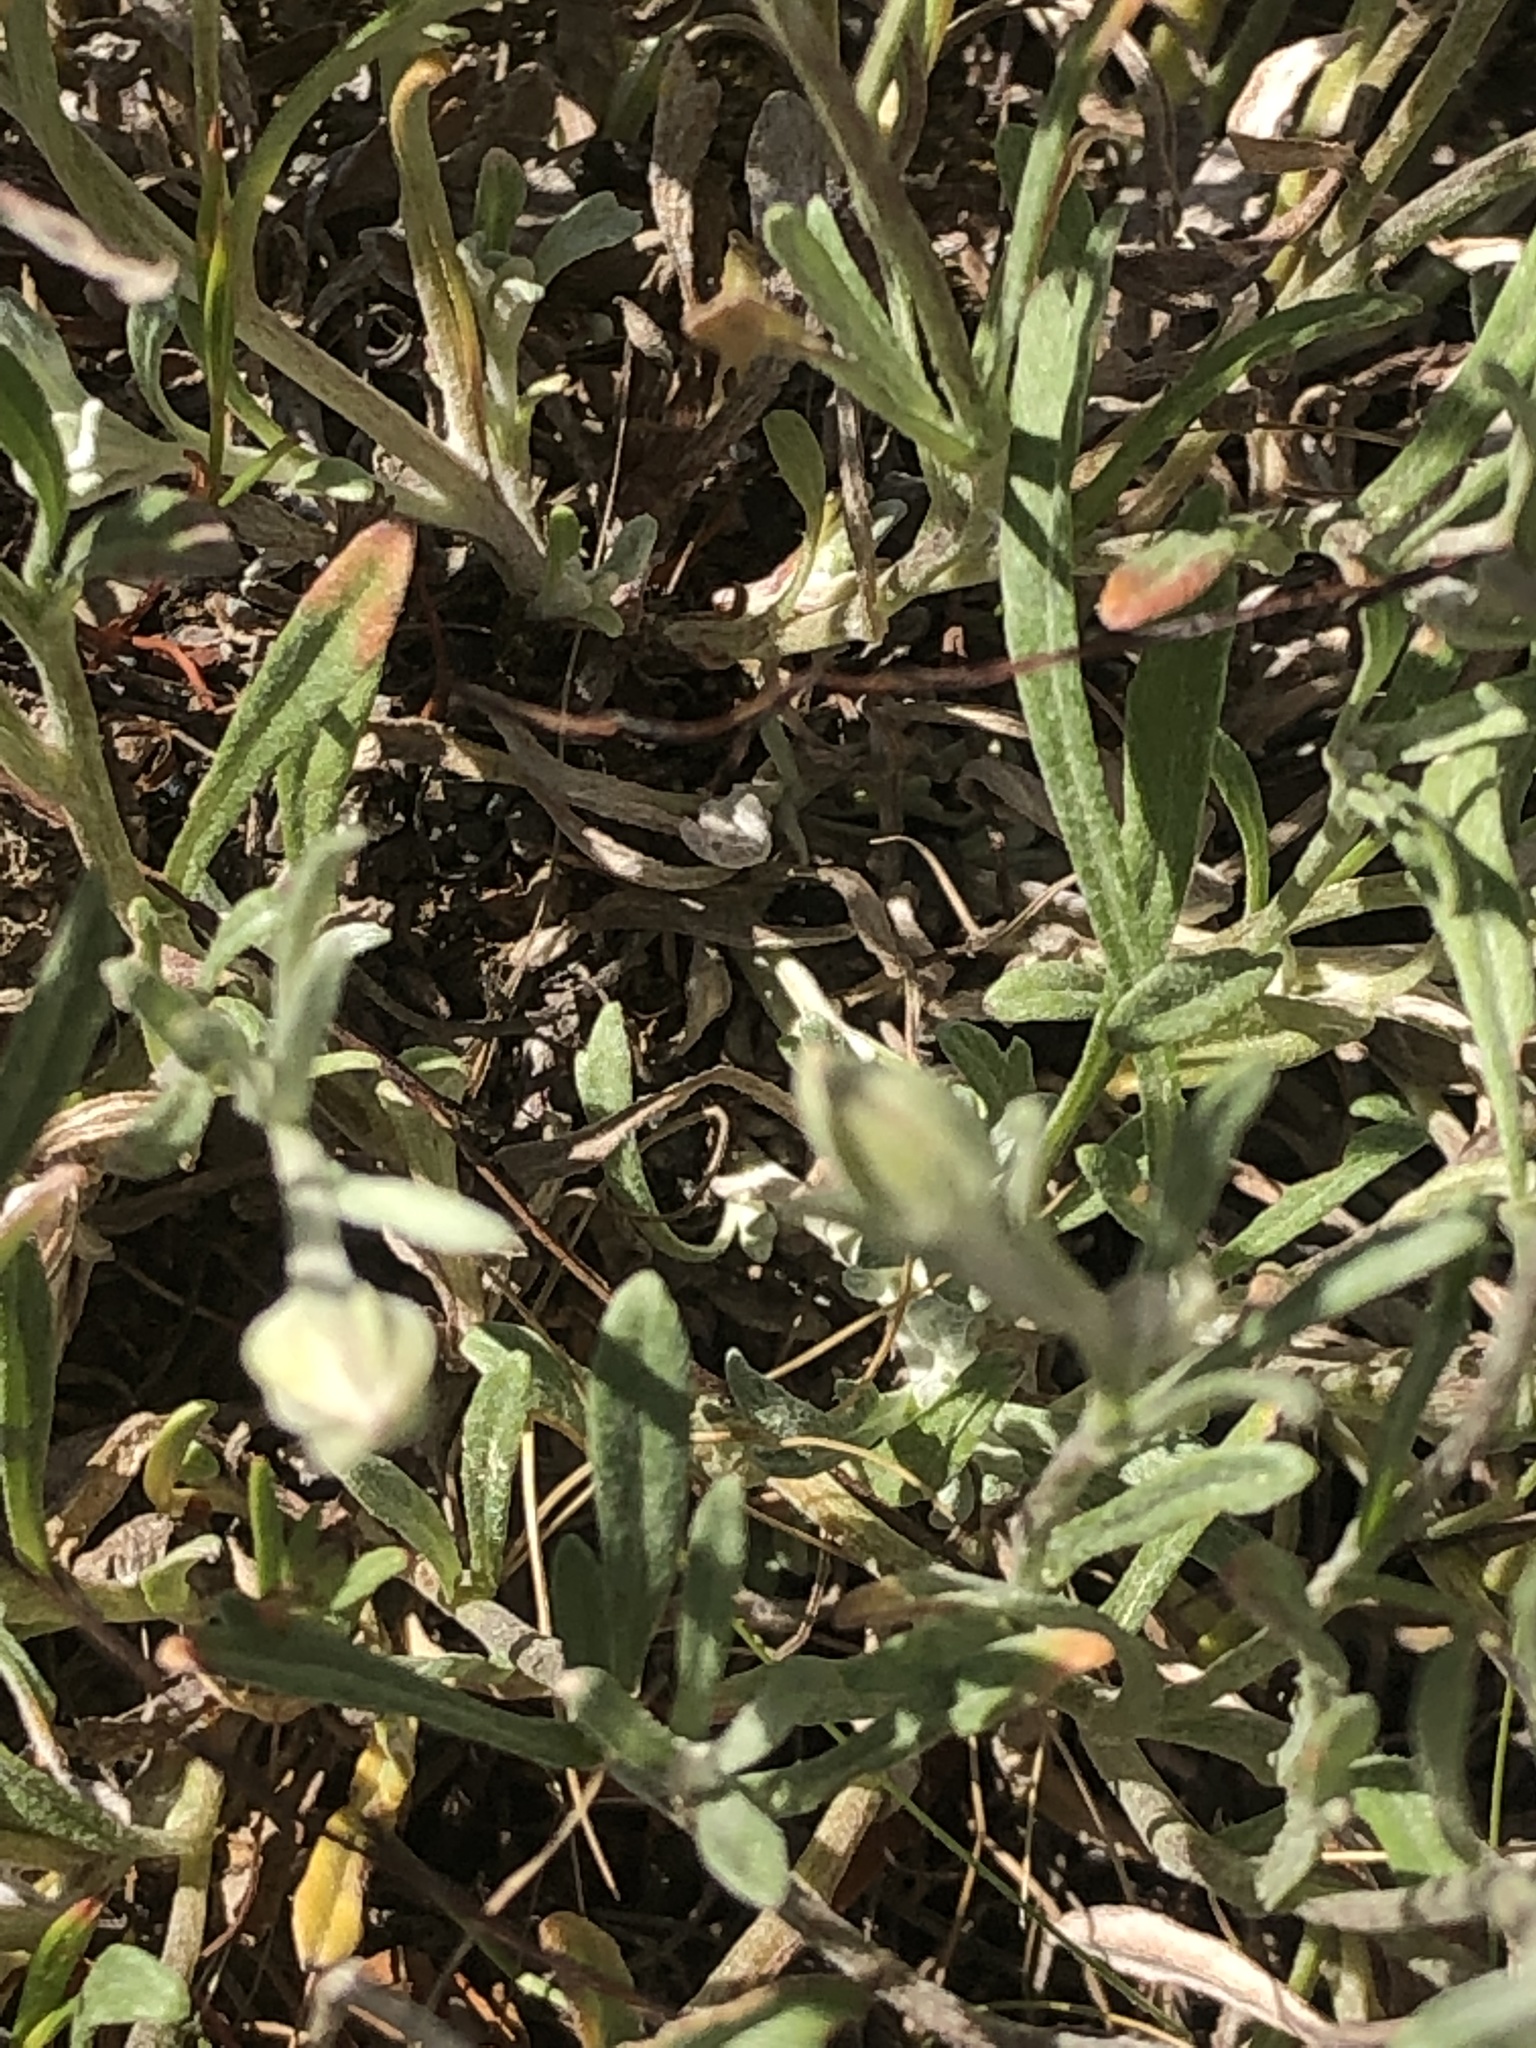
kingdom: Plantae
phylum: Tracheophyta
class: Magnoliopsida
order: Asterales
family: Asteraceae
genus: Eriophyllum
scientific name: Eriophyllum lanatum
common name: Common woolly-sunflower
